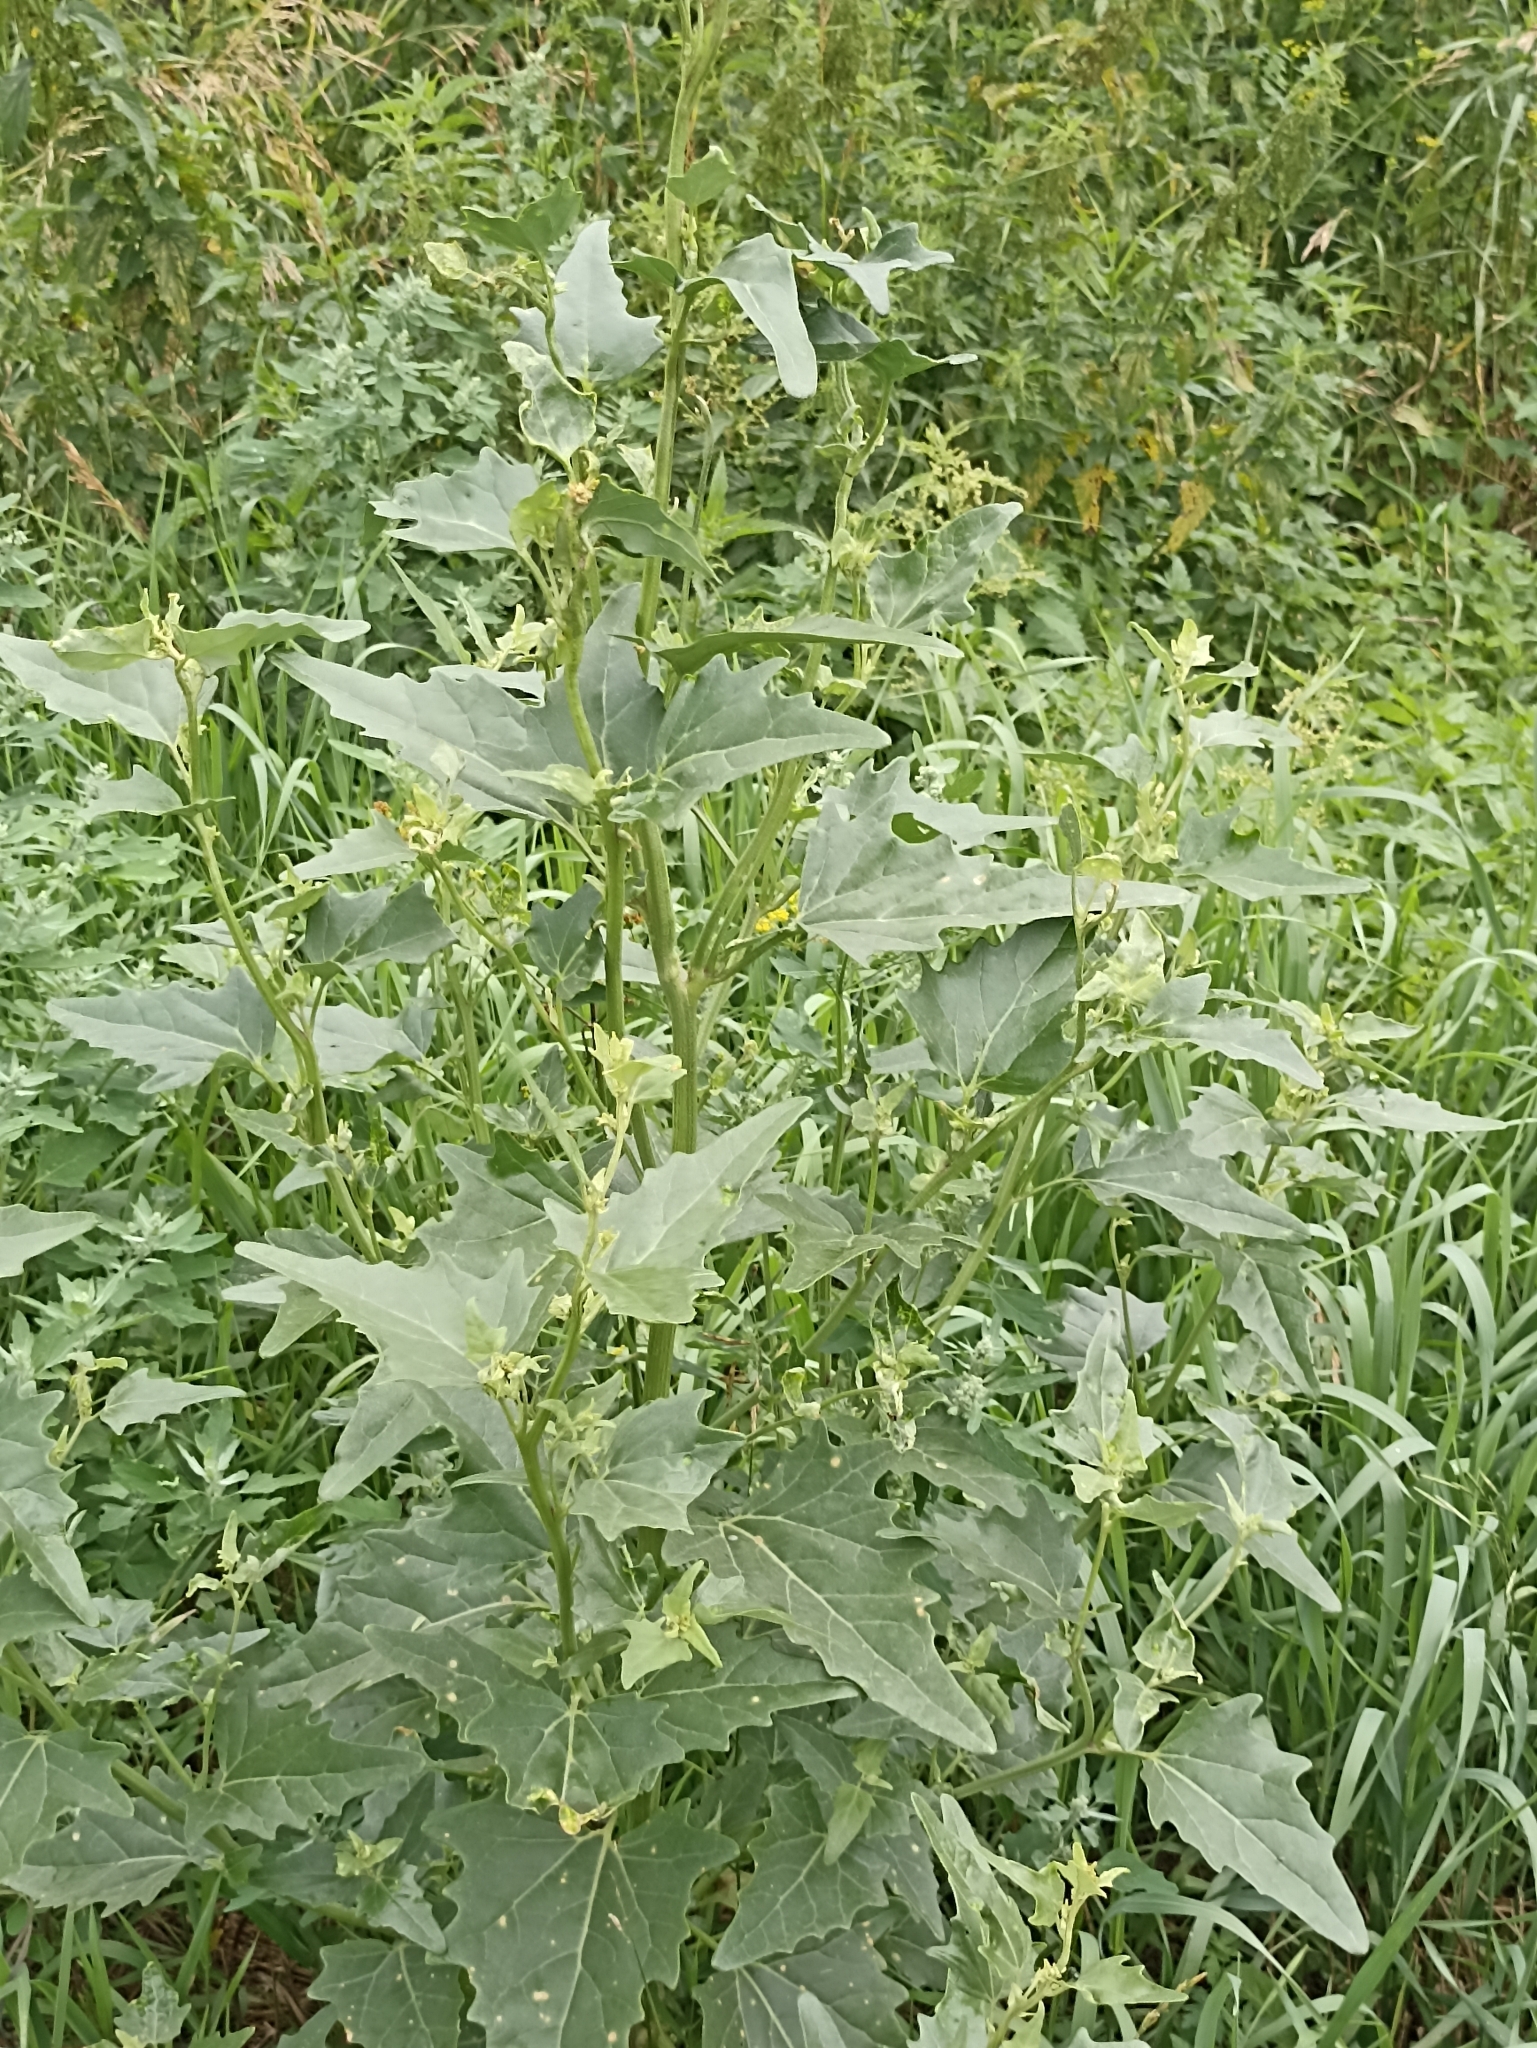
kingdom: Plantae
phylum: Tracheophyta
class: Magnoliopsida
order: Caryophyllales
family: Amaranthaceae
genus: Atriplex
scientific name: Atriplex sagittata
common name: Purple orache
